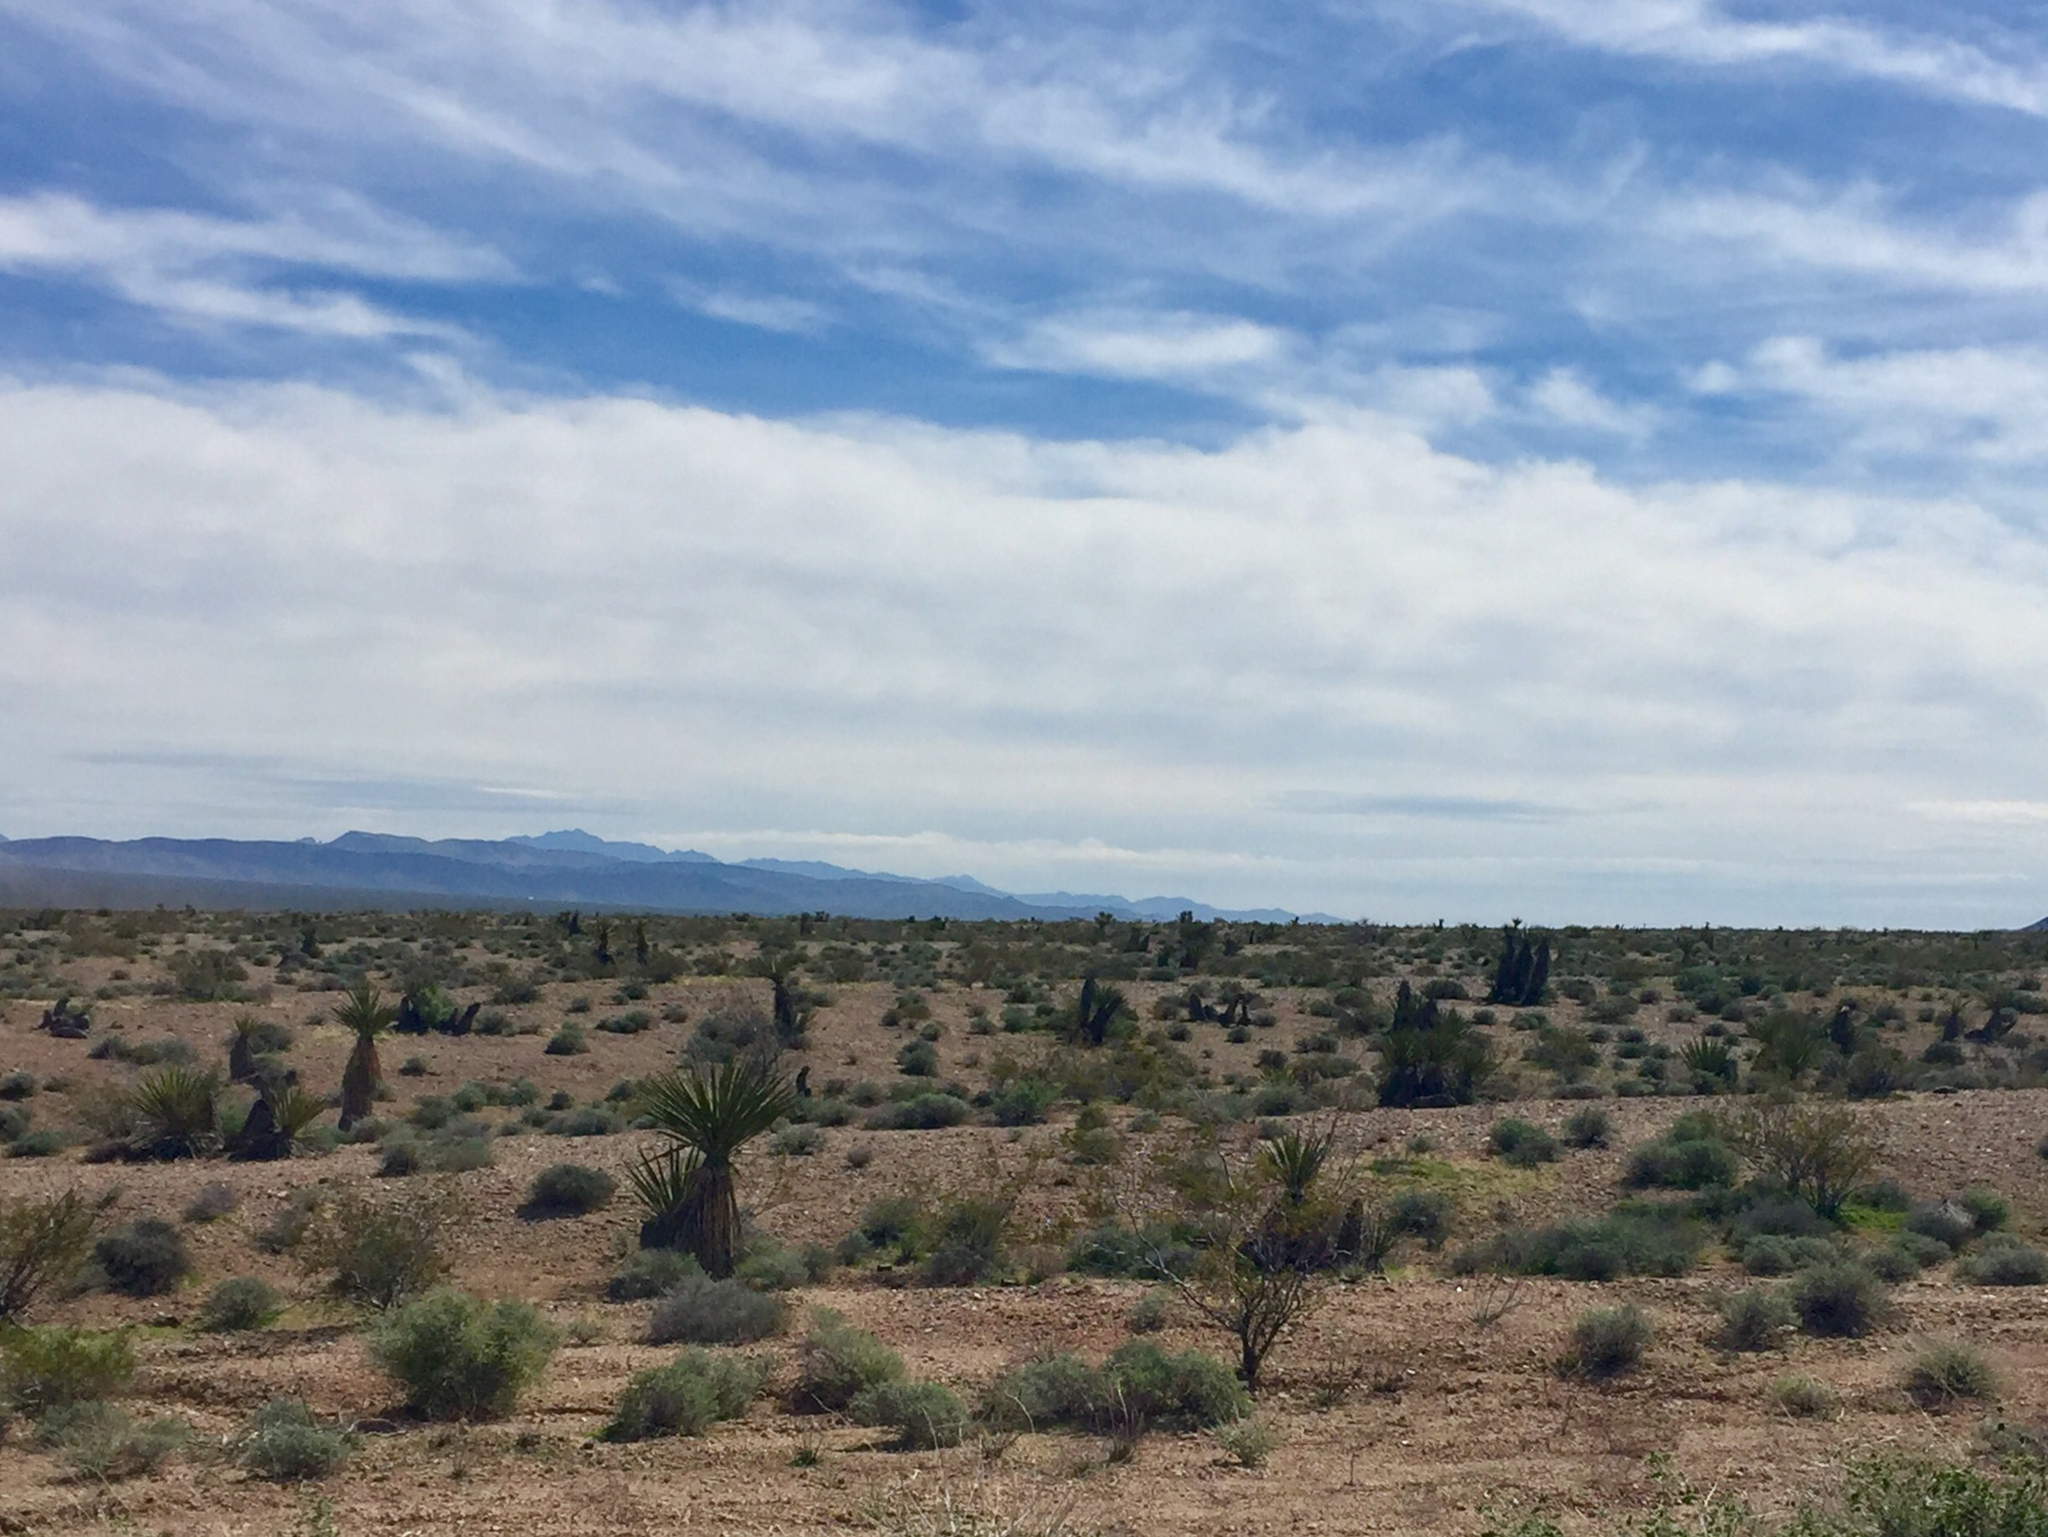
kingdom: Plantae
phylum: Tracheophyta
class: Liliopsida
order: Asparagales
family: Asparagaceae
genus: Yucca
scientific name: Yucca schidigera
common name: Mojave yucca
